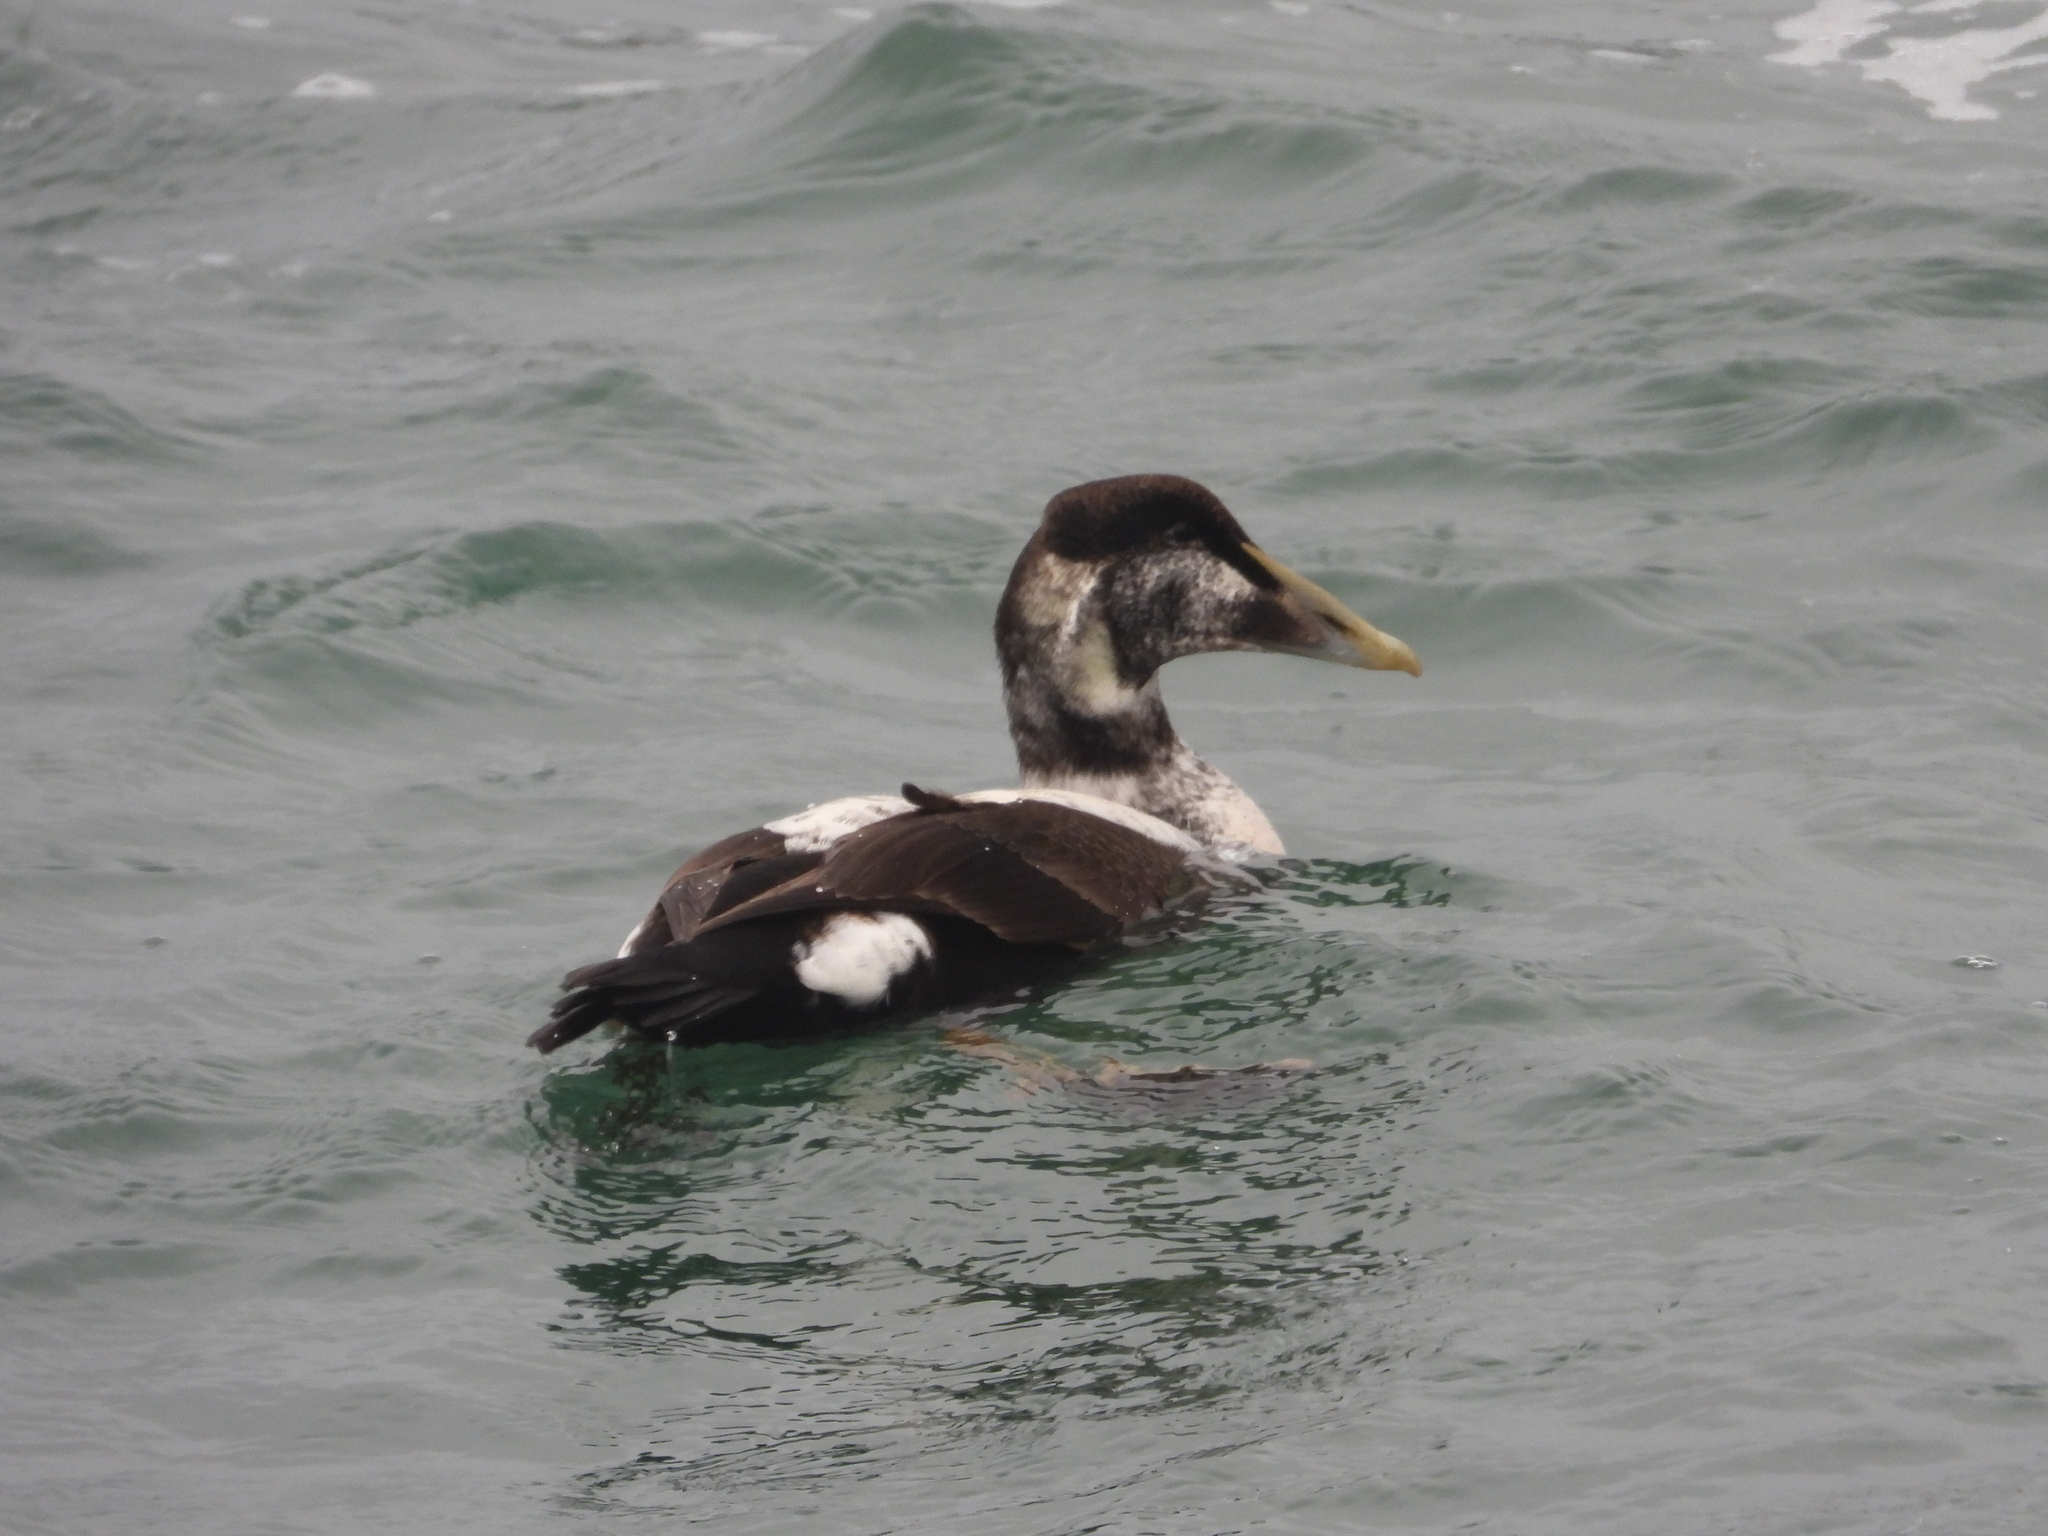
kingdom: Animalia
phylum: Chordata
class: Aves
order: Anseriformes
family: Anatidae
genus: Somateria
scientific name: Somateria mollissima
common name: Common eider
